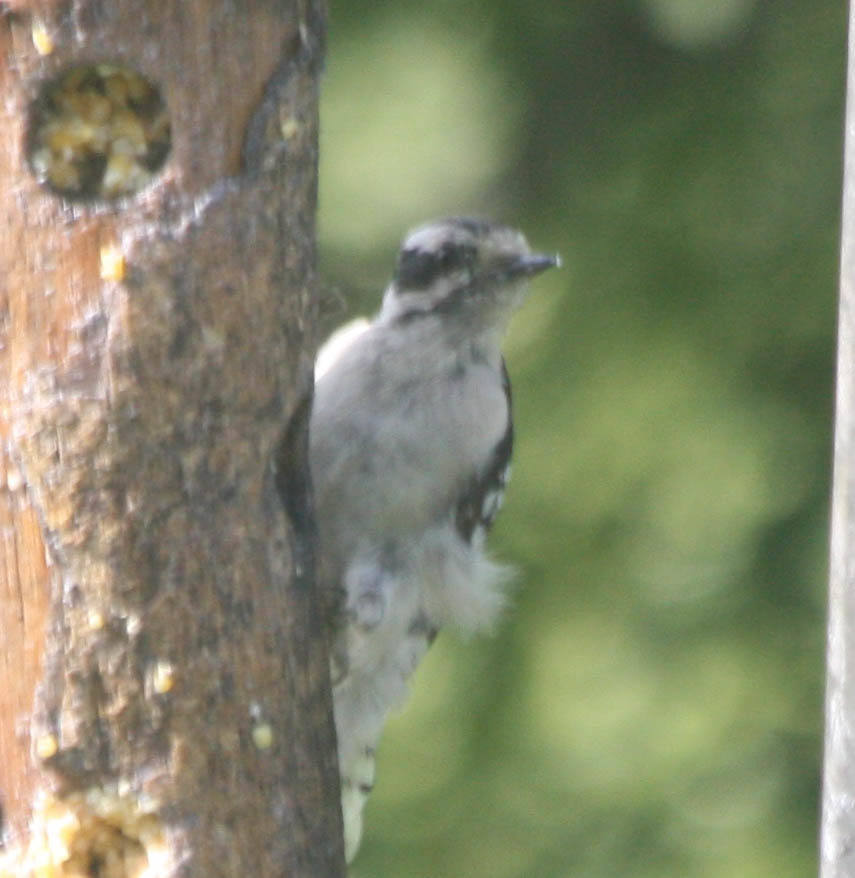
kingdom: Animalia
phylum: Chordata
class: Aves
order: Piciformes
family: Picidae
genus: Dryobates
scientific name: Dryobates pubescens
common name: Downy woodpecker
